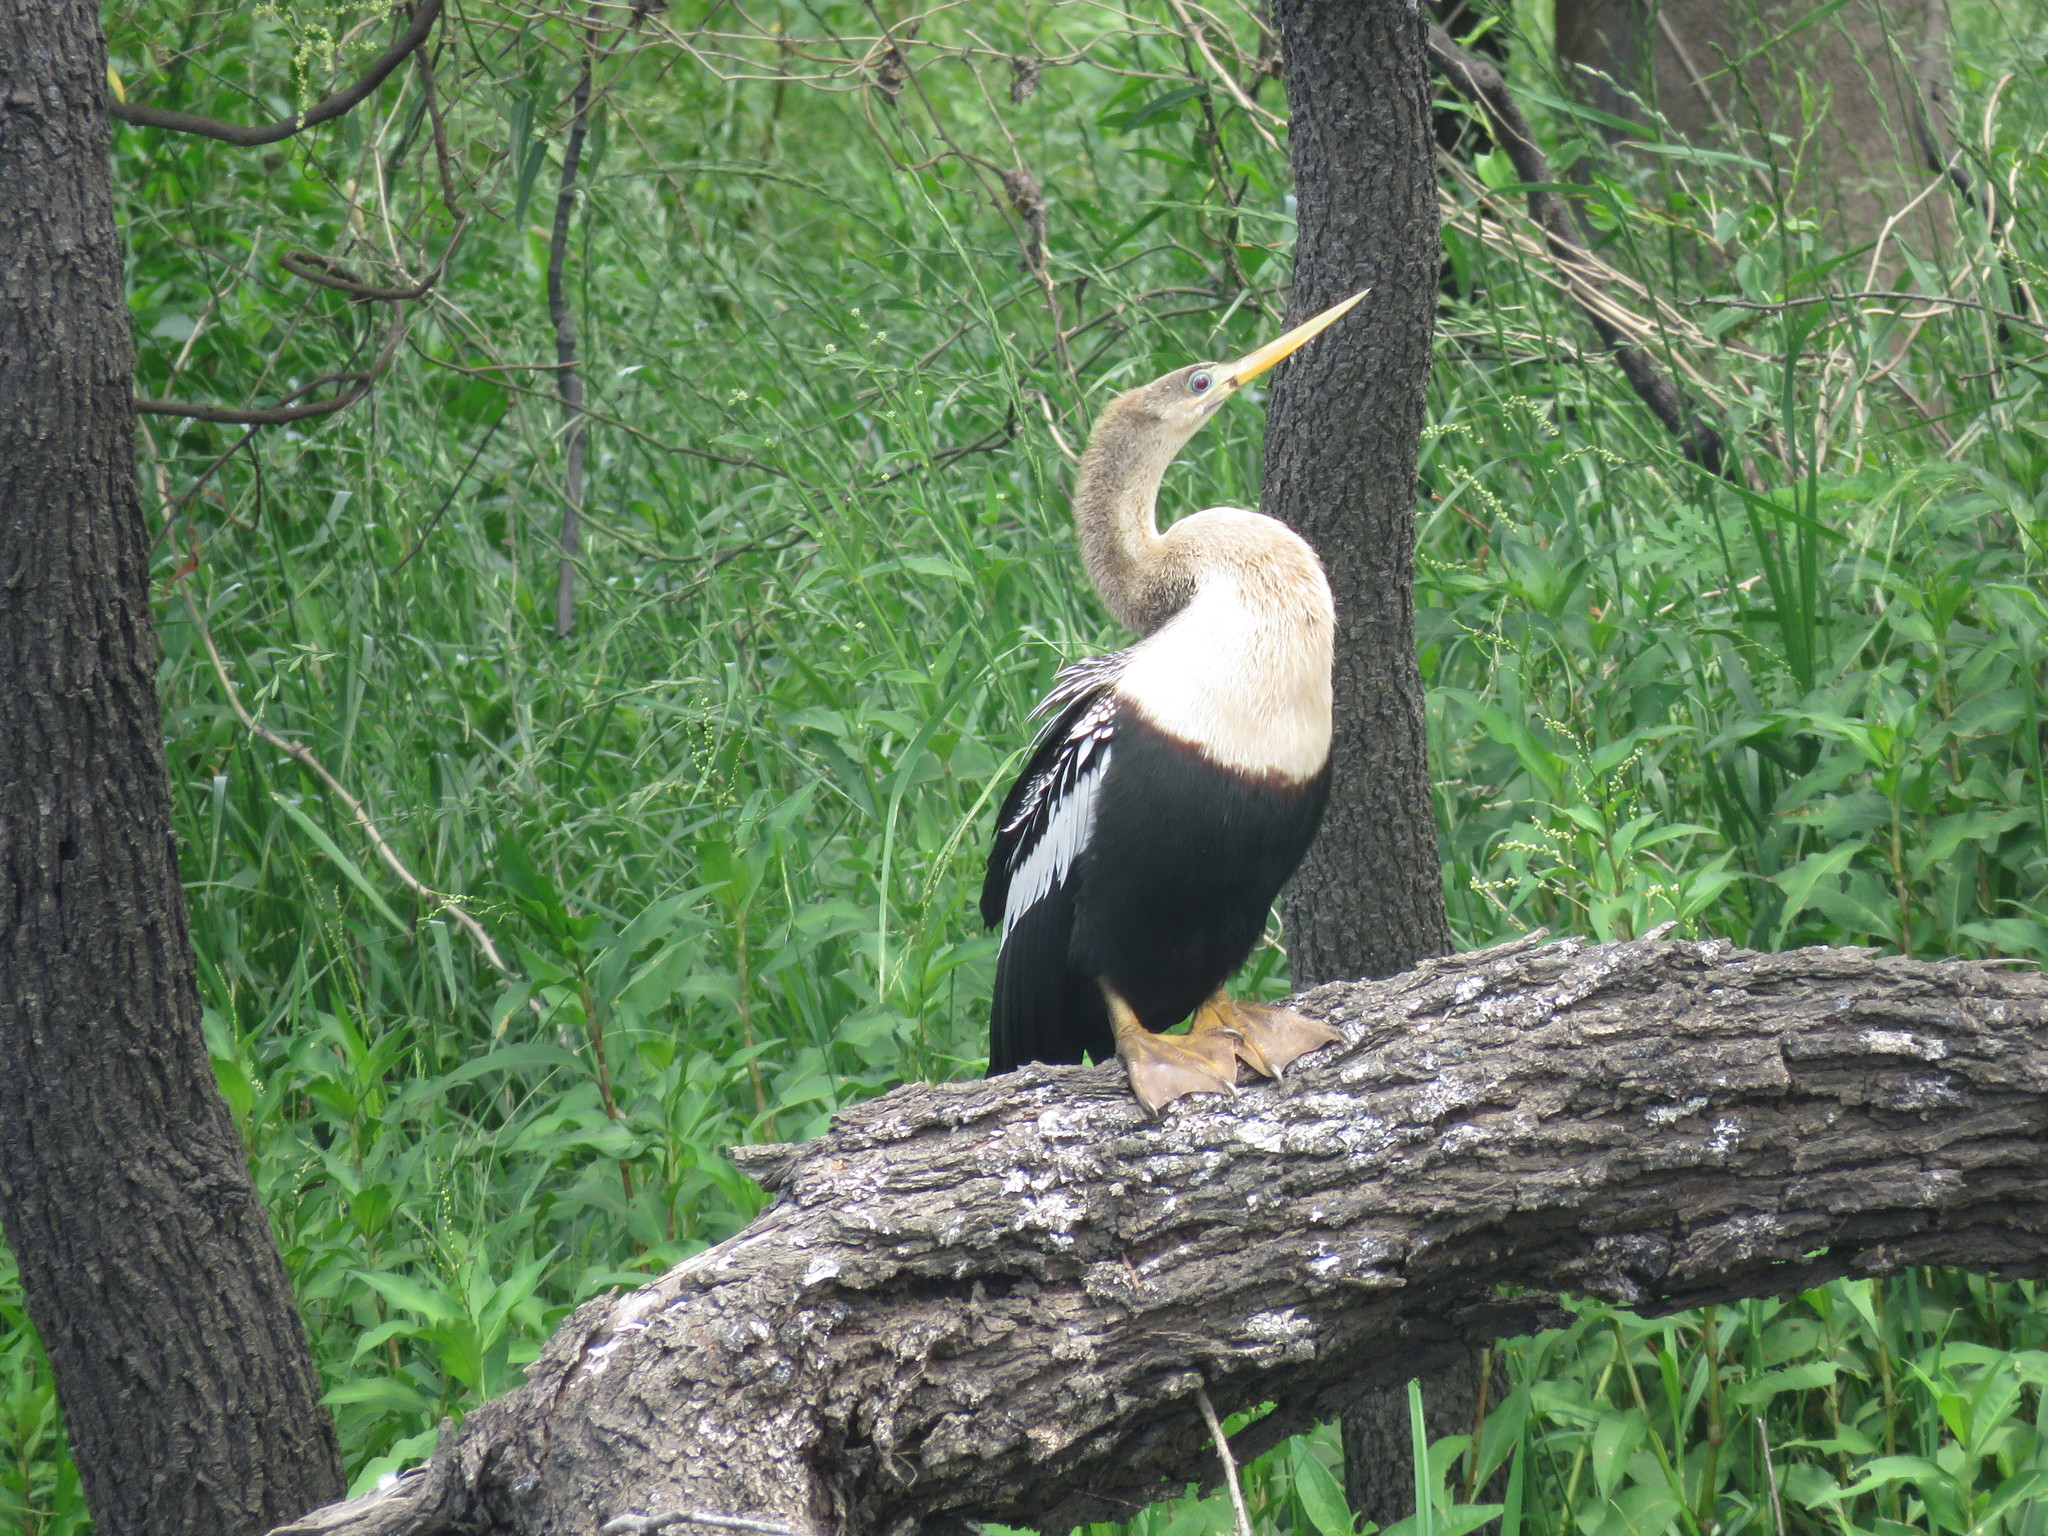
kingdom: Animalia
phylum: Chordata
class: Aves
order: Suliformes
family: Anhingidae
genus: Anhinga
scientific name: Anhinga anhinga
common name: Anhinga
